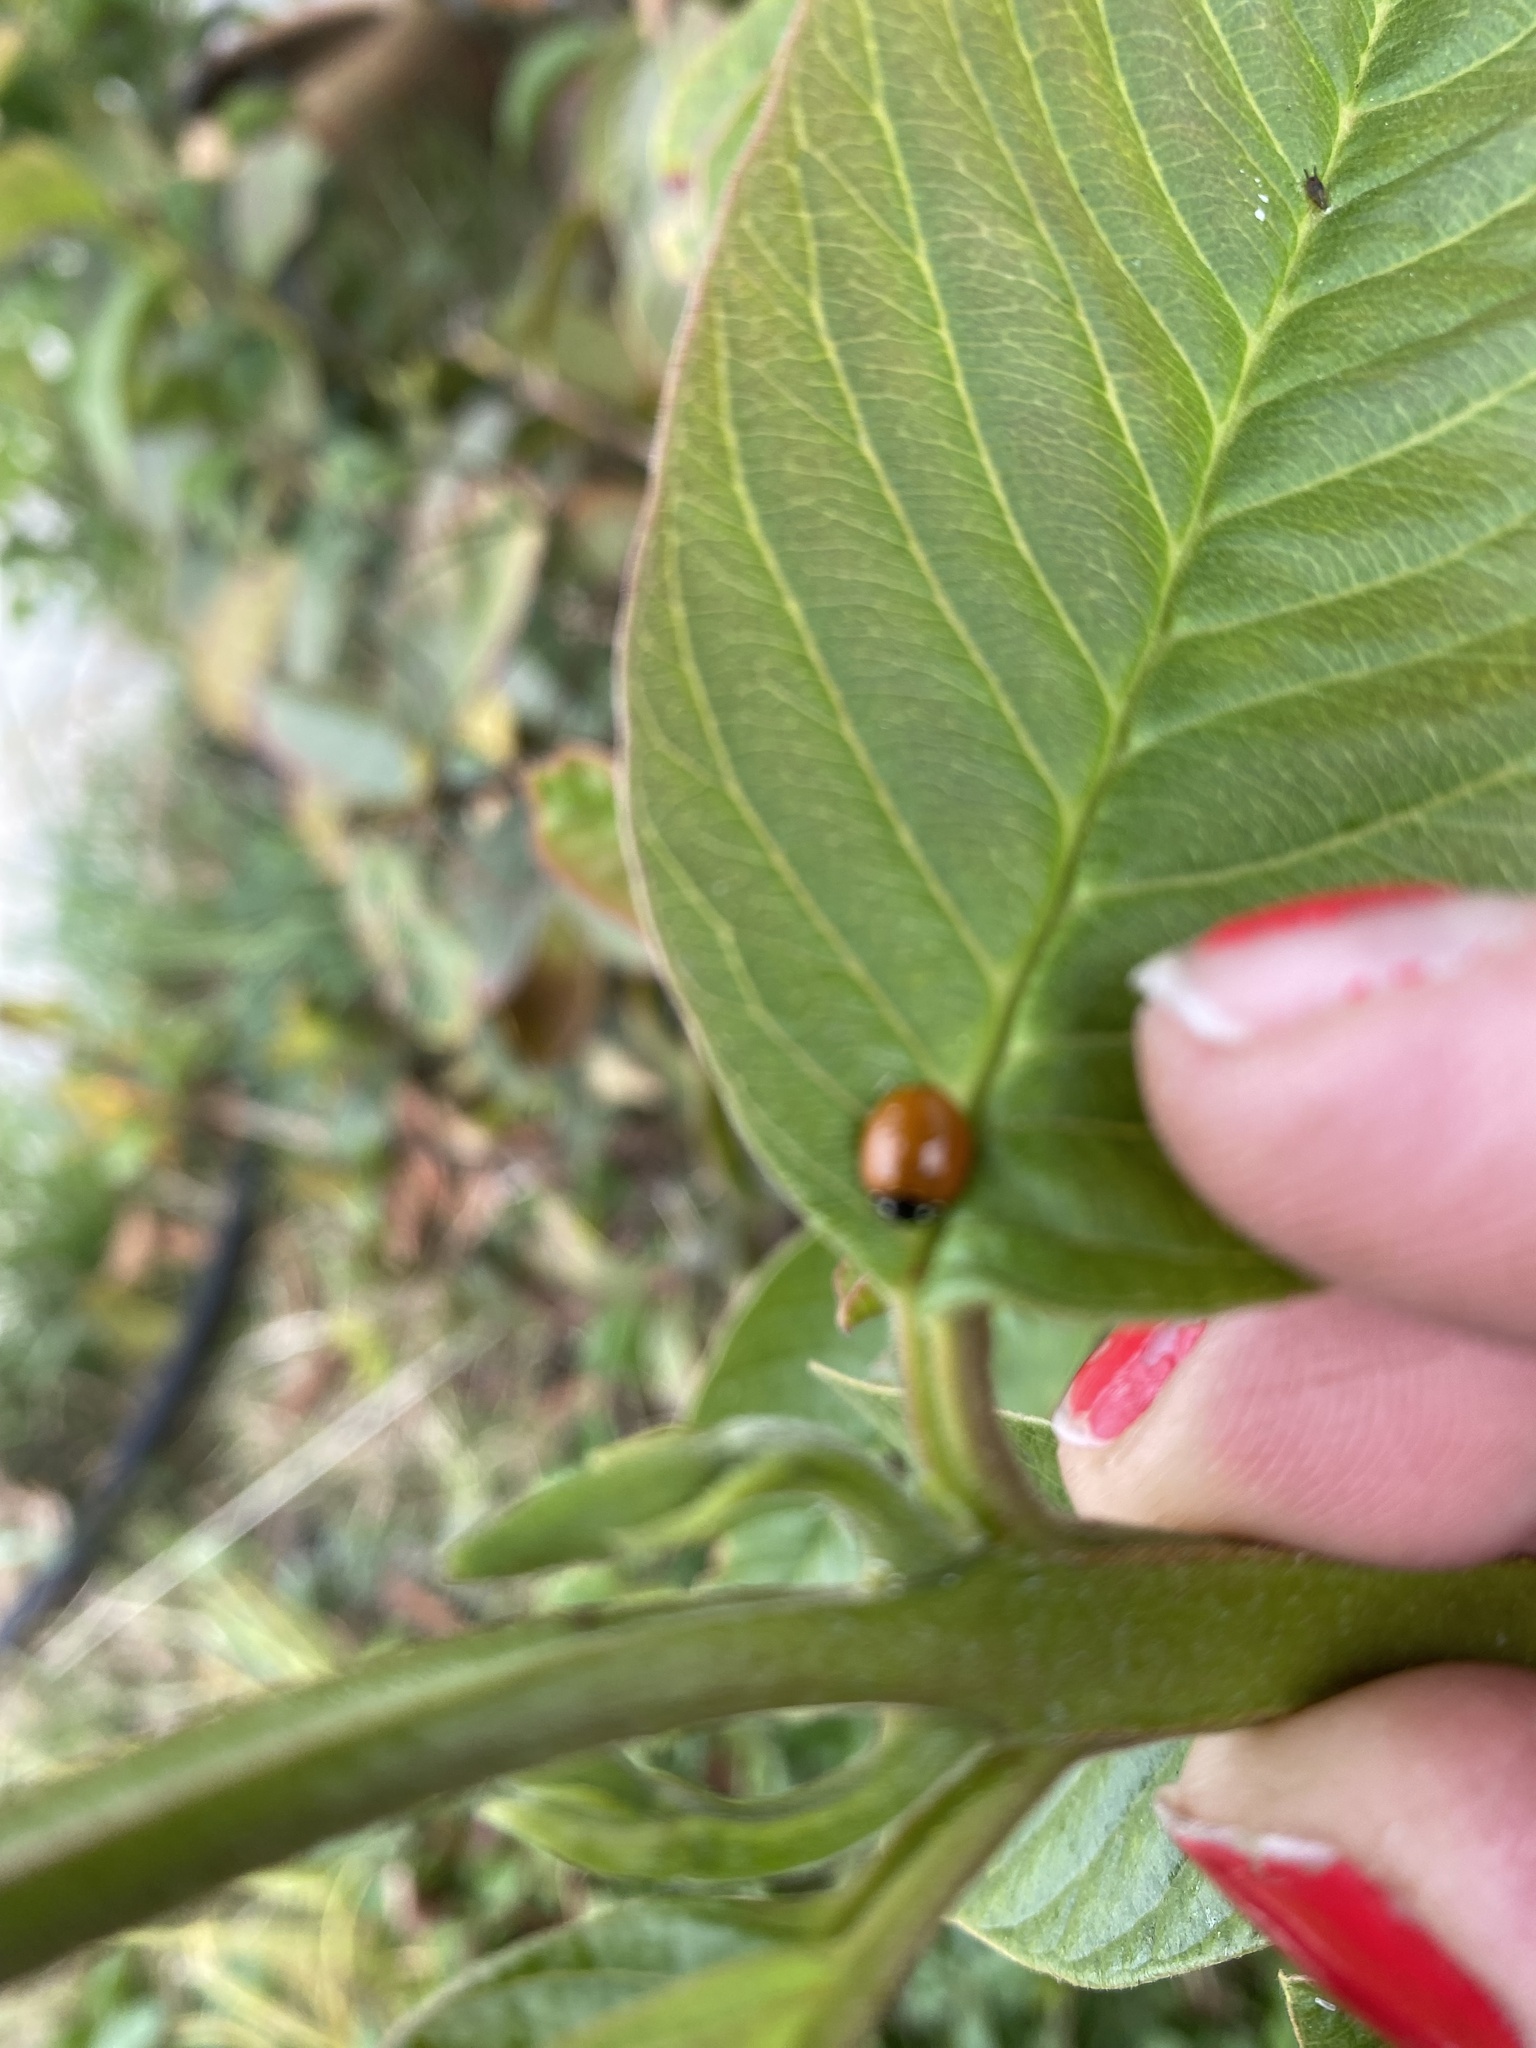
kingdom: Animalia
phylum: Arthropoda
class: Insecta
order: Coleoptera
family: Coccinellidae
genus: Cycloneda
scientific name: Cycloneda sanguinea
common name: Ladybird beetle
